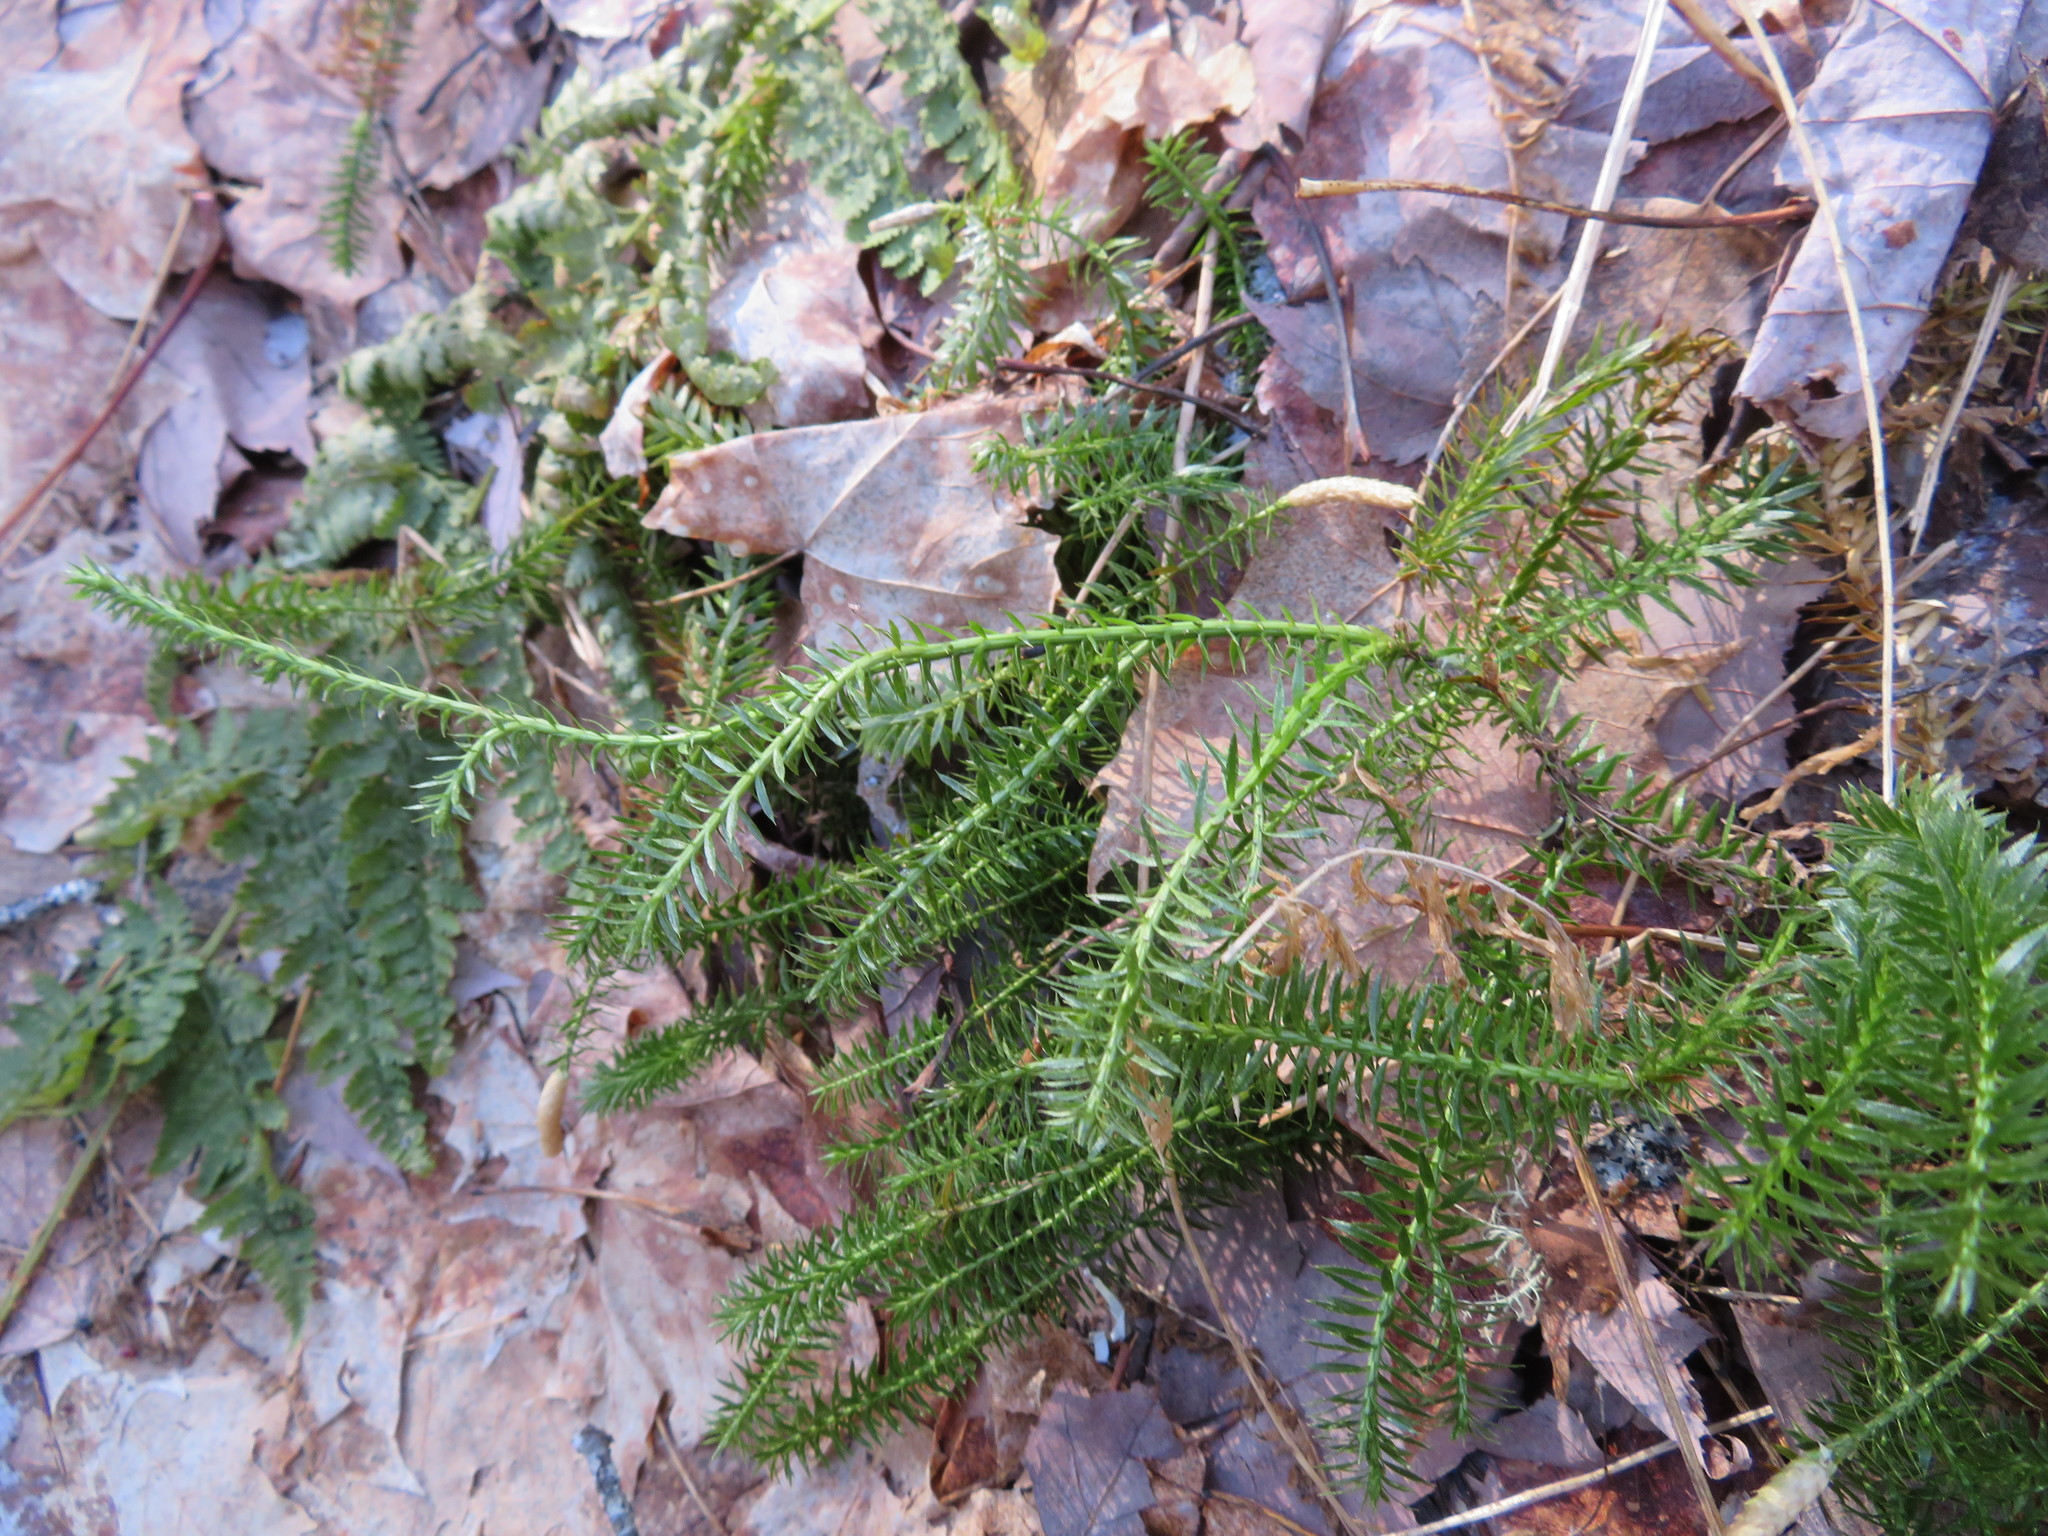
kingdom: Plantae
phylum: Tracheophyta
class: Lycopodiopsida
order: Lycopodiales
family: Lycopodiaceae
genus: Spinulum
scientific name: Spinulum annotinum
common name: Interrupted club-moss
